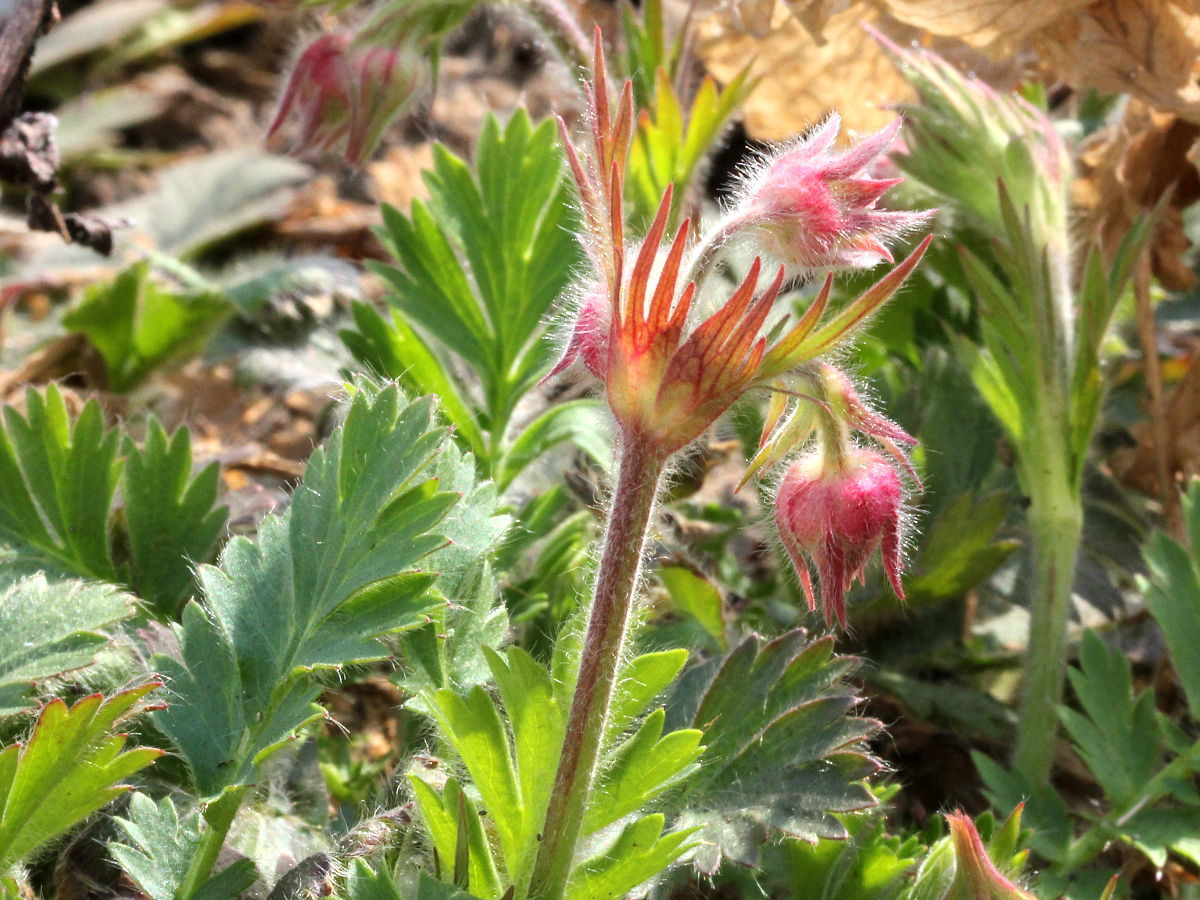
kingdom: Plantae
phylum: Tracheophyta
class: Magnoliopsida
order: Rosales
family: Rosaceae
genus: Geum
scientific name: Geum triflorum
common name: Old man's whiskers
